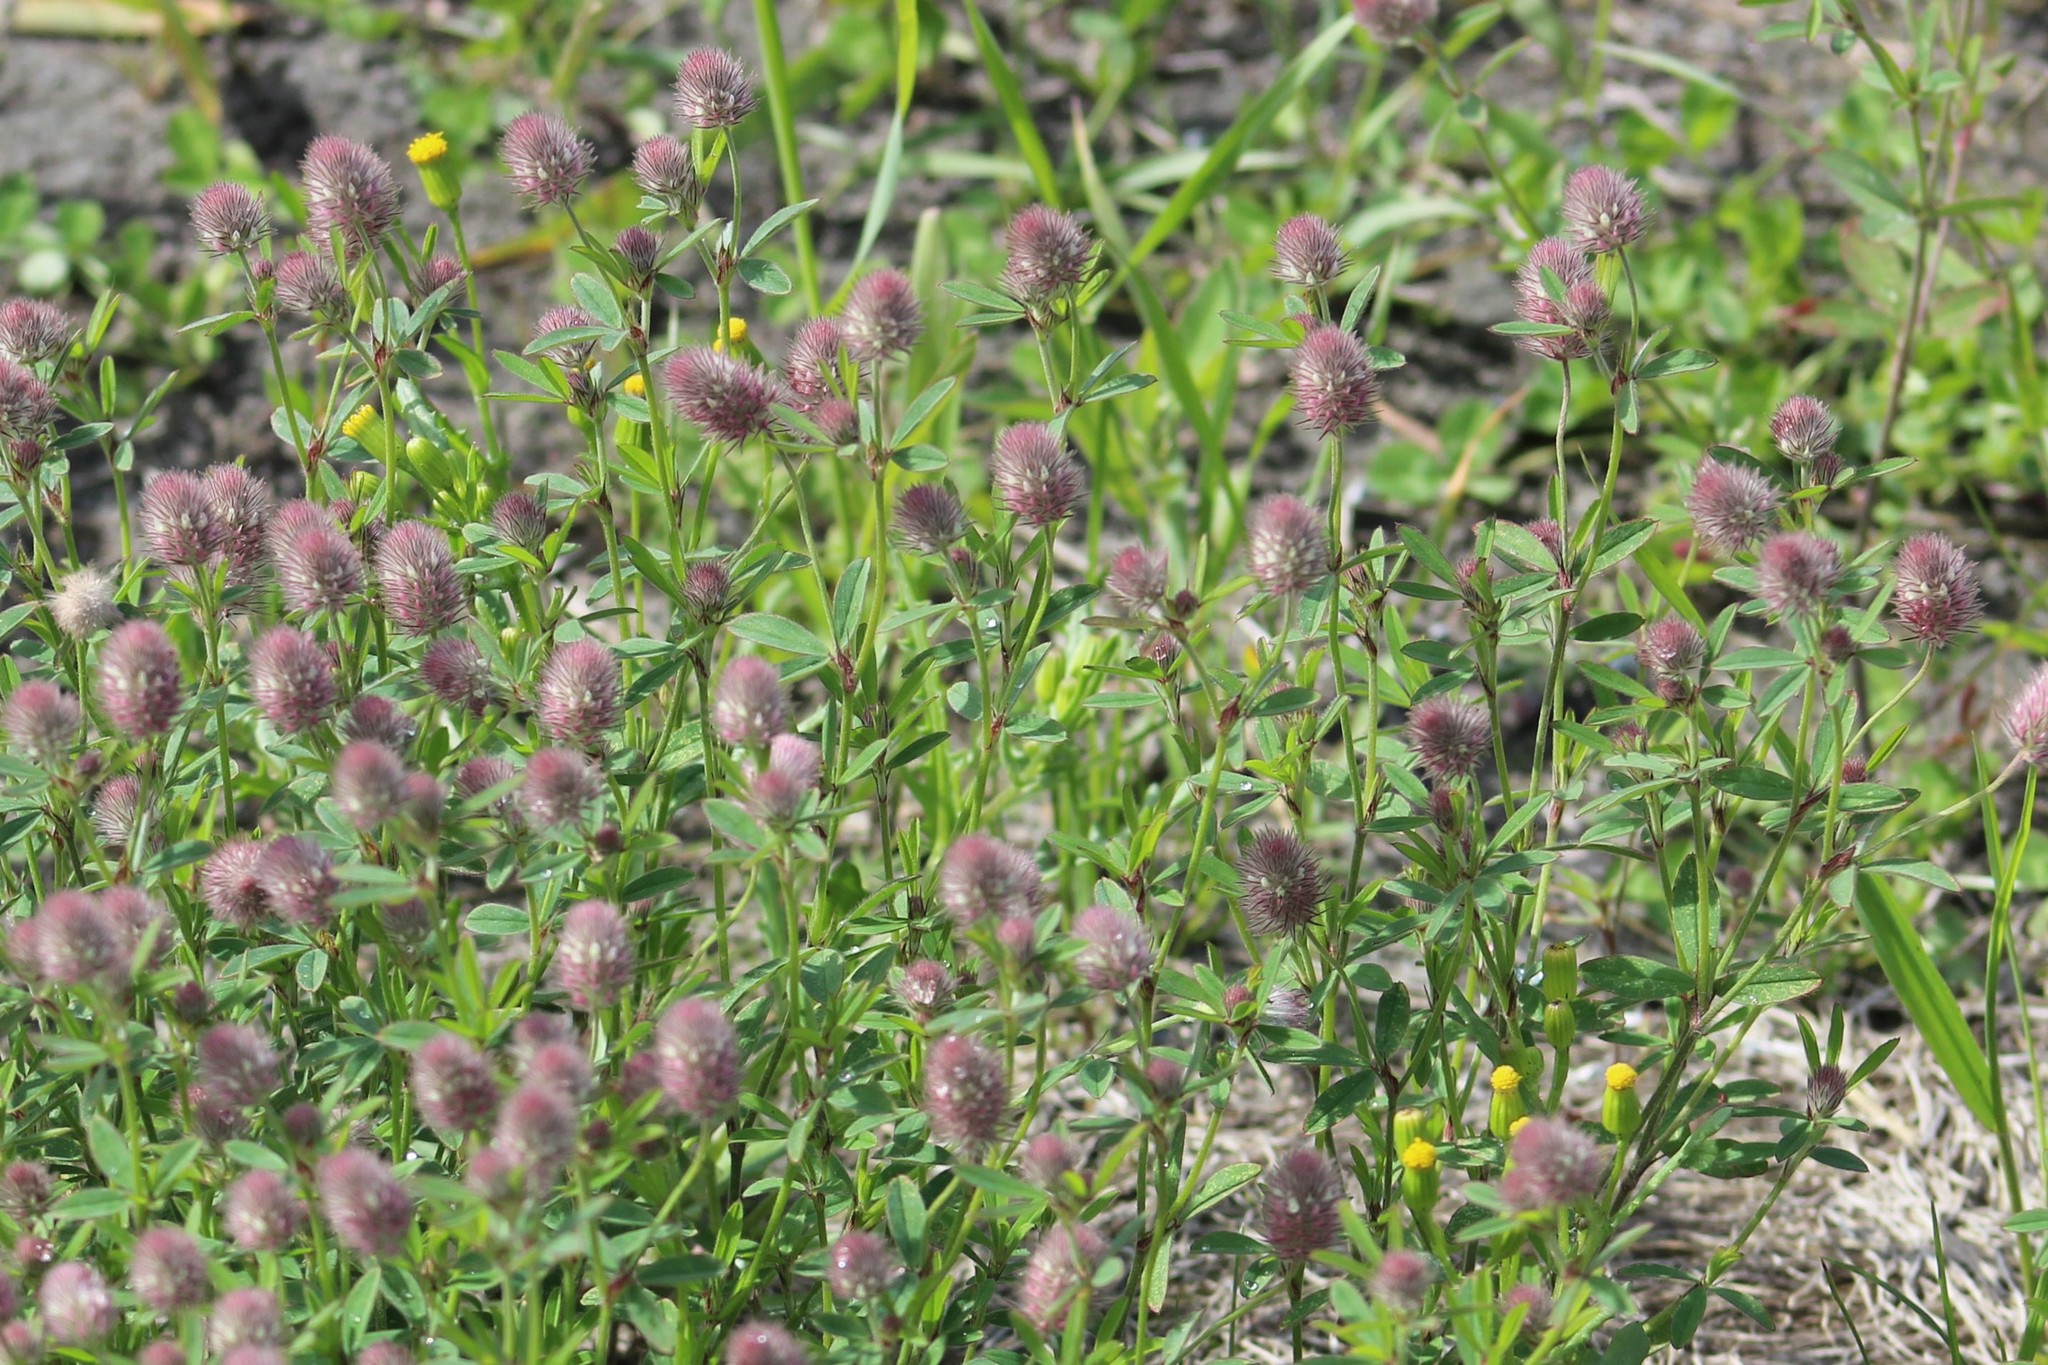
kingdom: Plantae
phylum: Tracheophyta
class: Magnoliopsida
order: Fabales
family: Fabaceae
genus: Trifolium
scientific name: Trifolium arvense
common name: Hare's-foot clover
